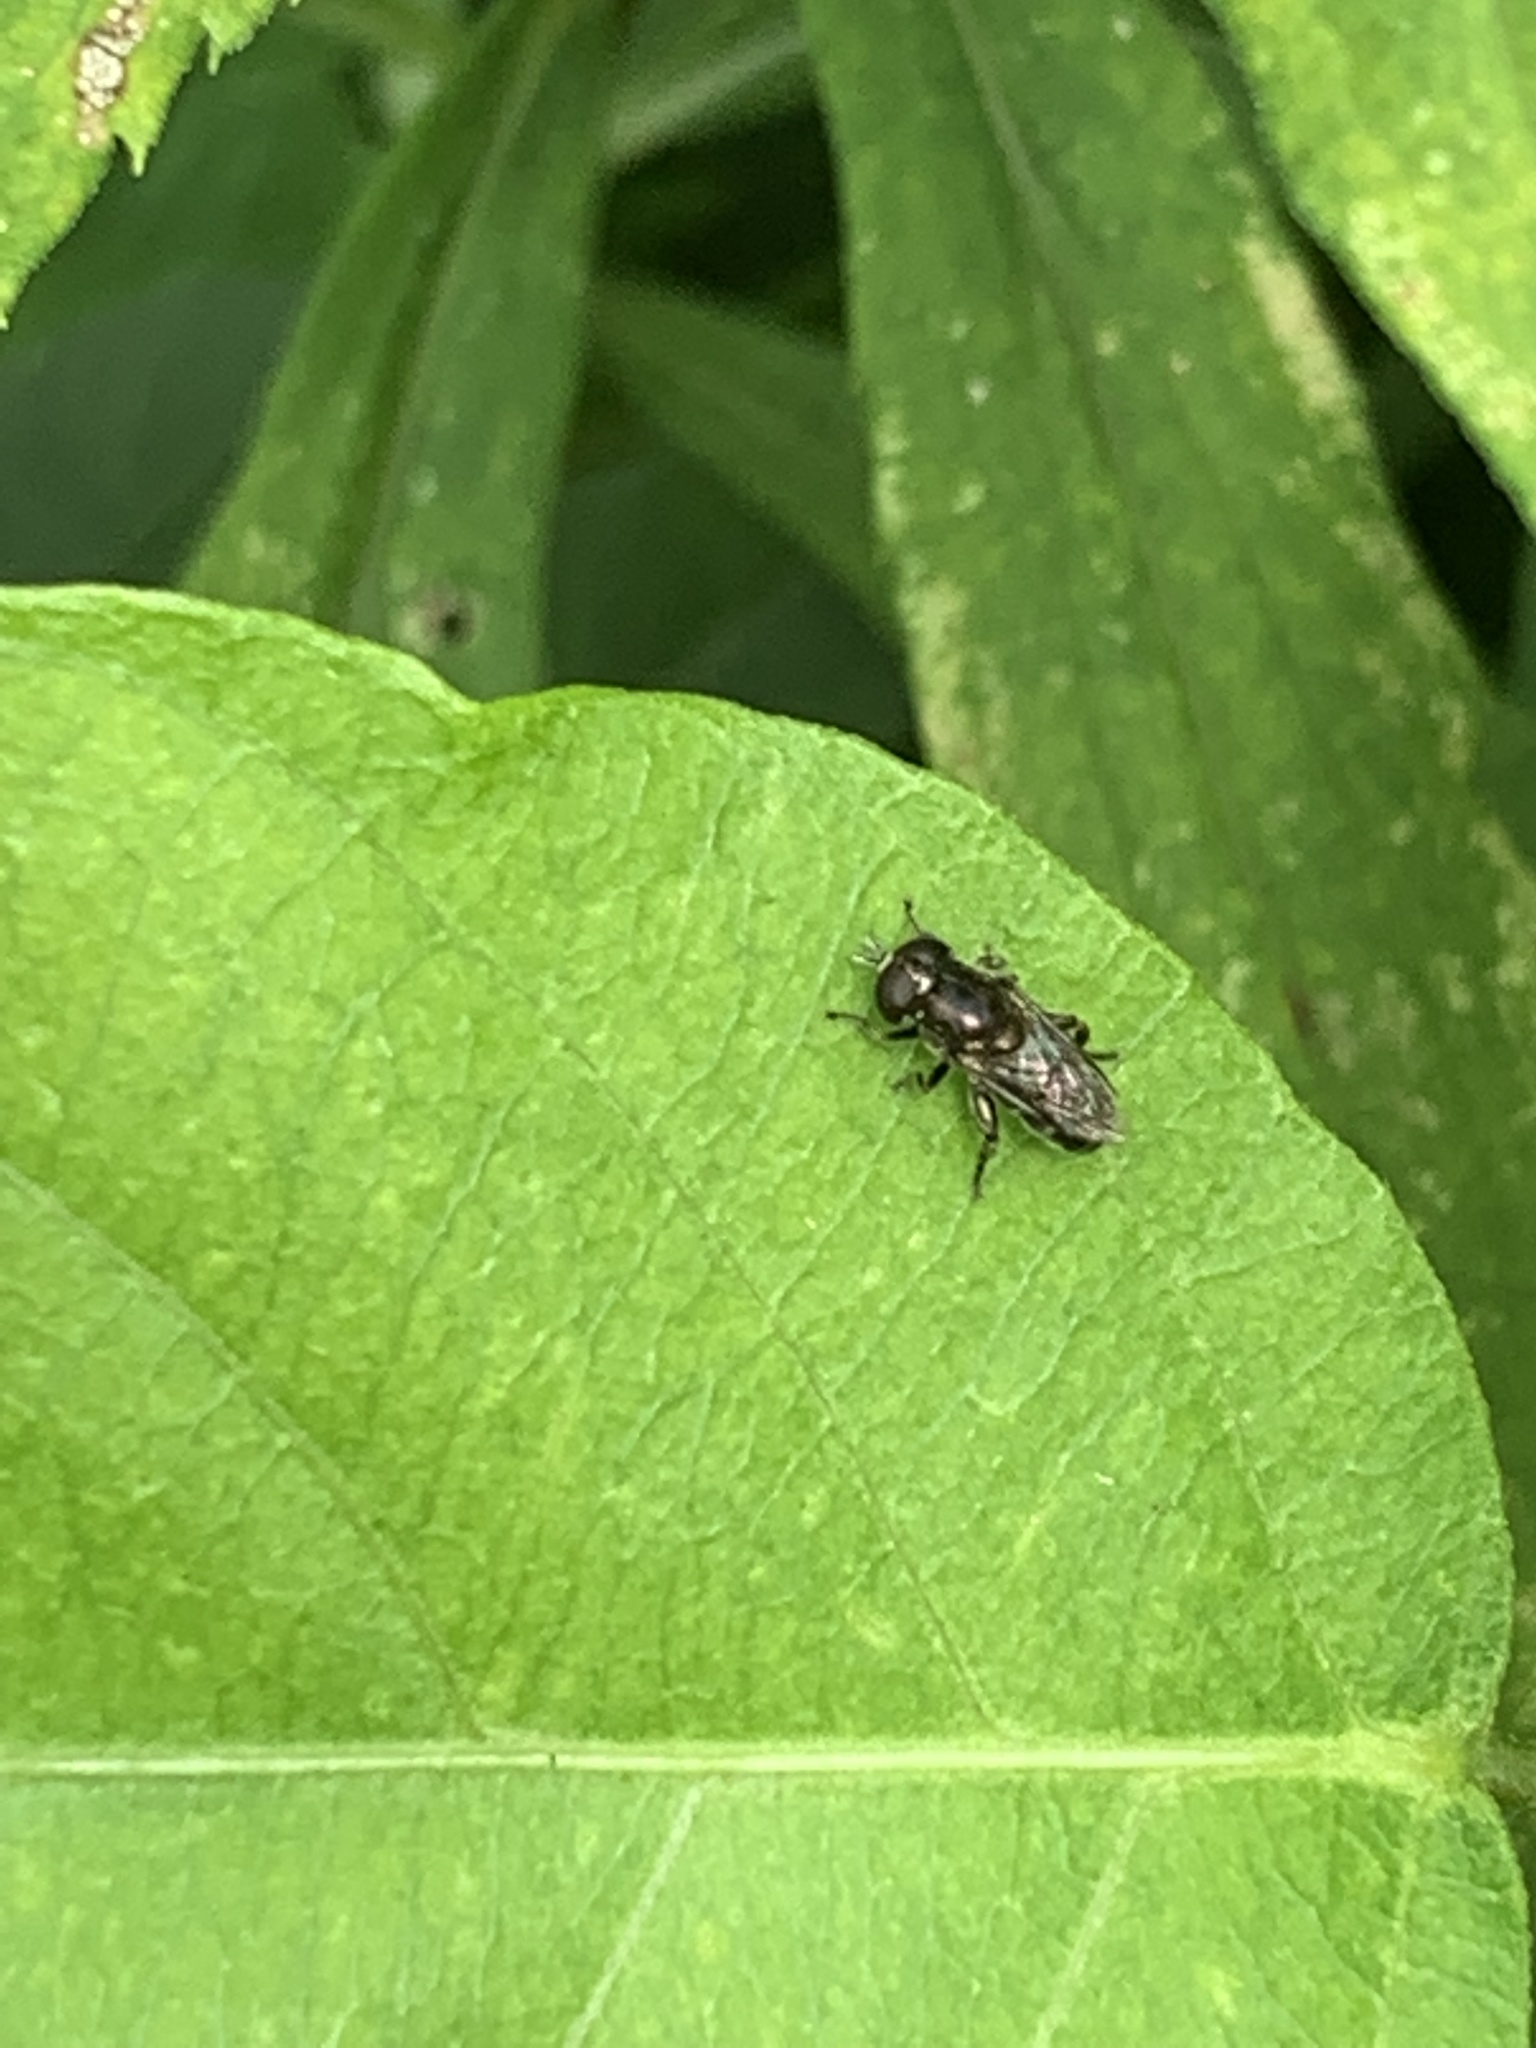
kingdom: Animalia
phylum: Arthropoda
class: Insecta
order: Diptera
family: Syrphidae
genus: Eumerus
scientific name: Eumerus
